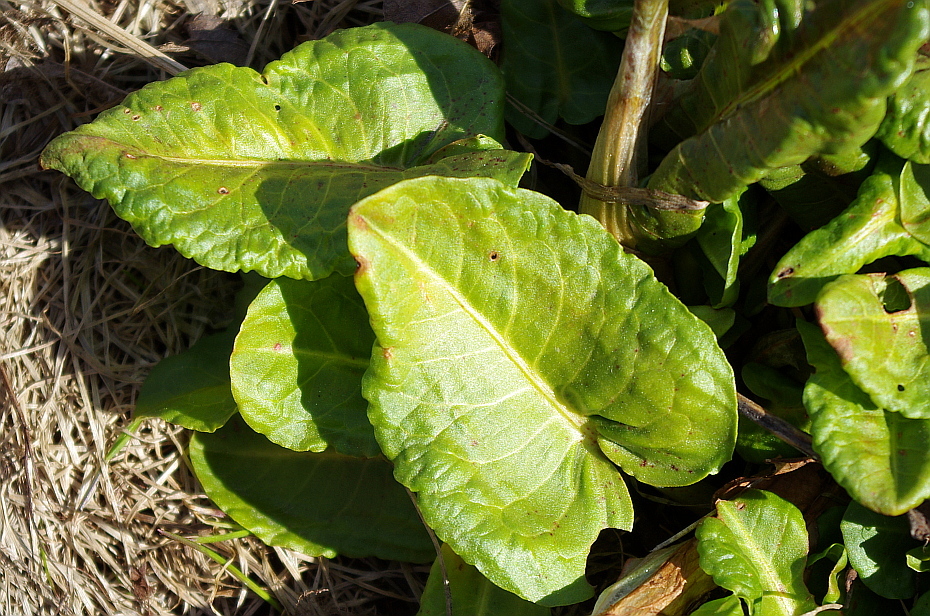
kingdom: Plantae
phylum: Tracheophyta
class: Magnoliopsida
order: Caryophyllales
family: Polygonaceae
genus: Rumex
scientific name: Rumex obtusifolius
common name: Bitter dock
